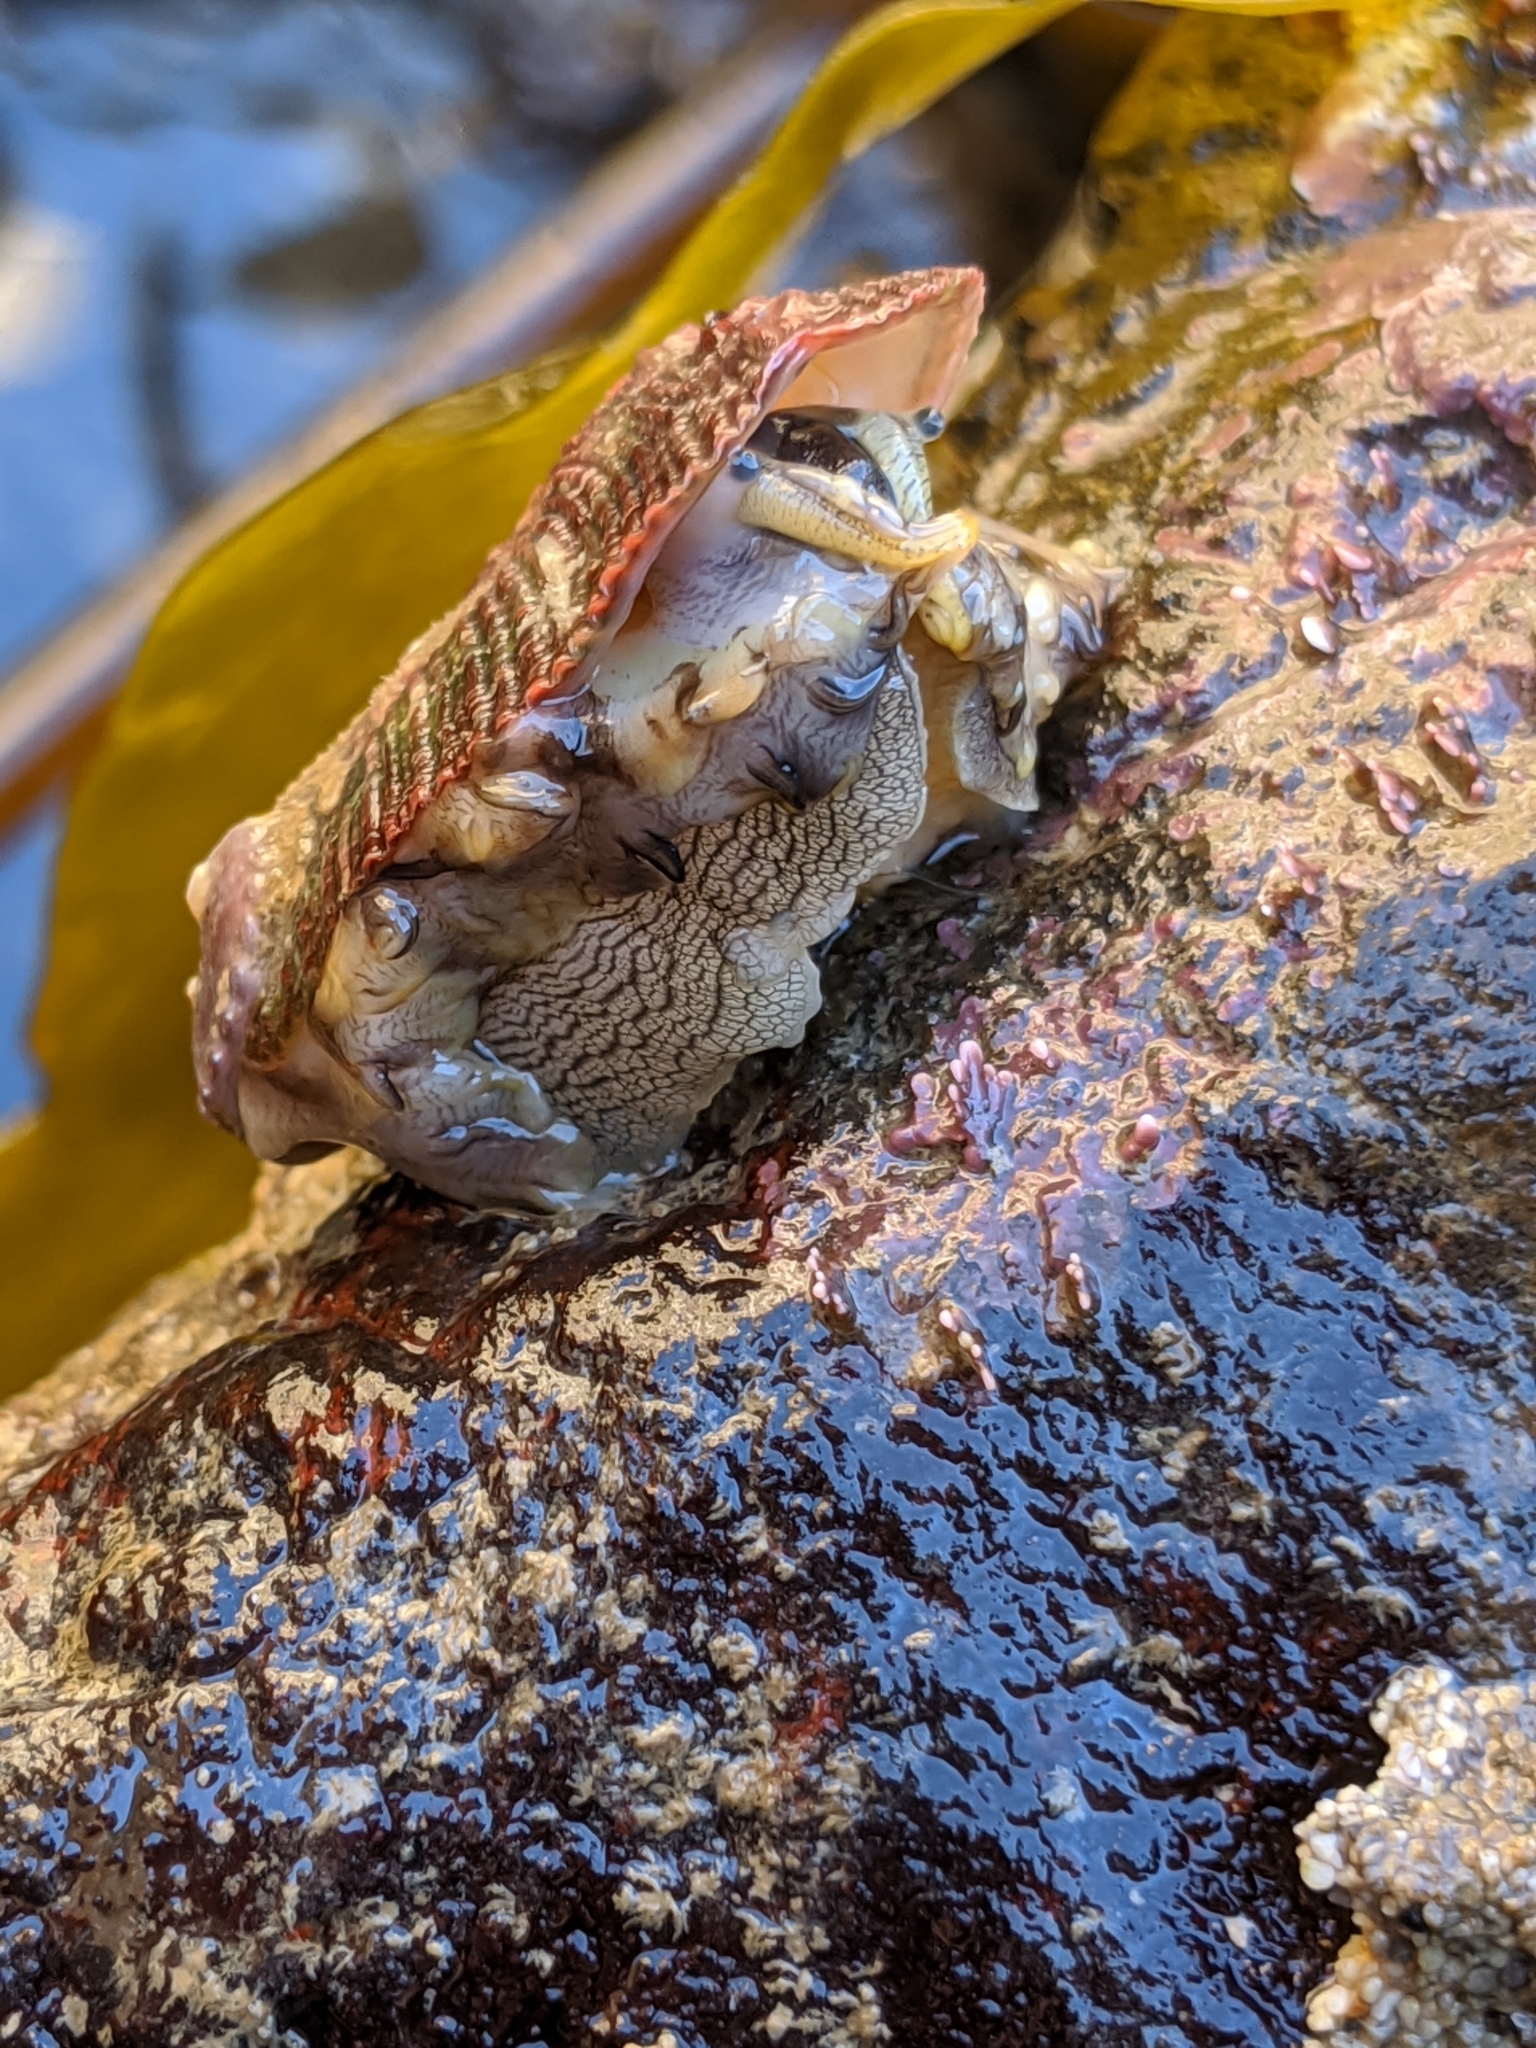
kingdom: Animalia
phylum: Mollusca
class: Gastropoda
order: Lepetellida
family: Haliotidae
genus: Haliotis
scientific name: Haliotis rufescens
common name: Red abalone
